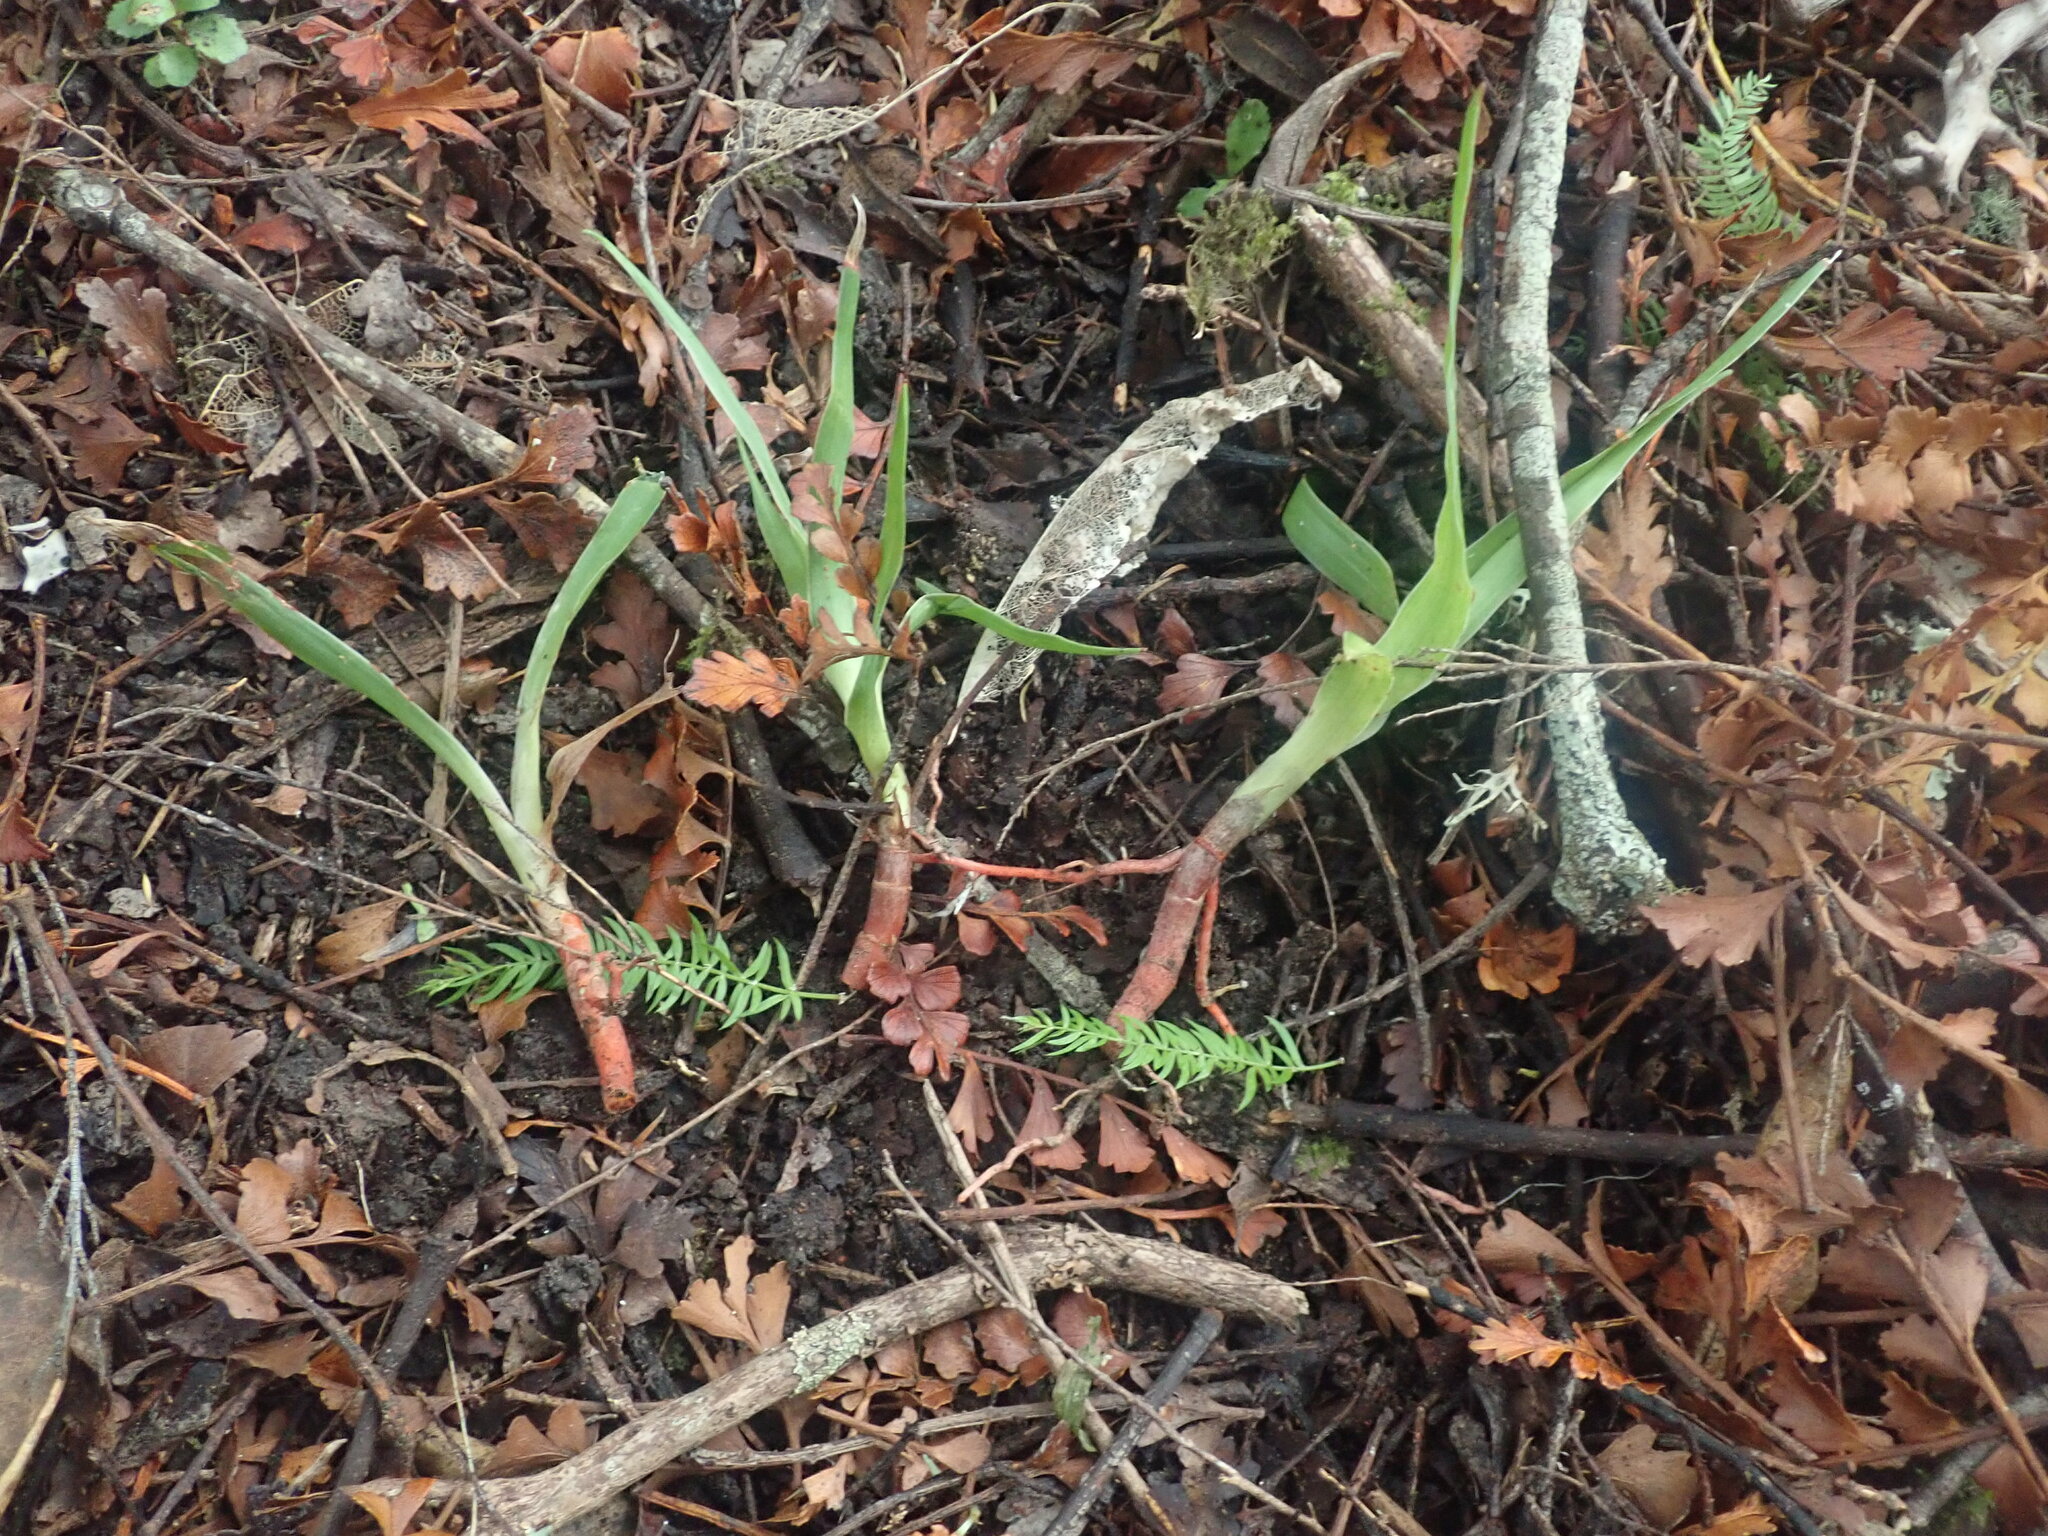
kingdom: Plantae
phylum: Tracheophyta
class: Liliopsida
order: Asparagales
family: Asparagaceae
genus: Dracaena
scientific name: Dracaena draco
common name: Canary island dragon tree
